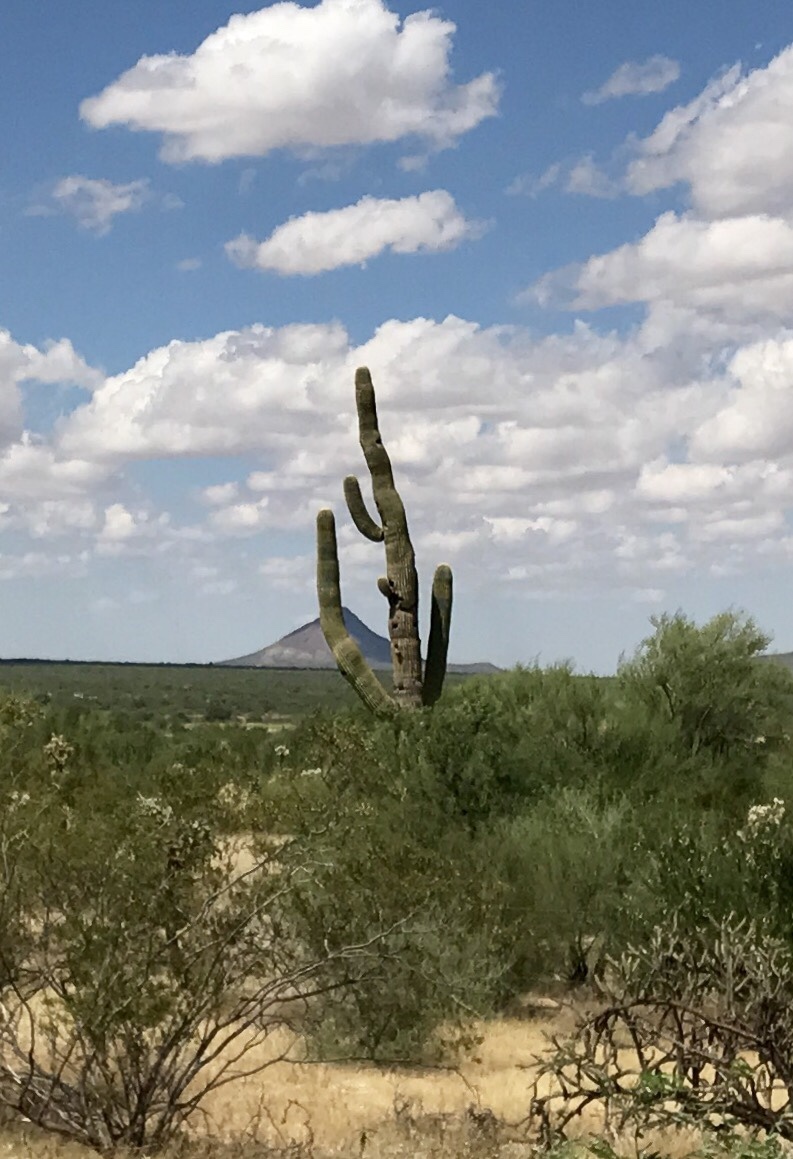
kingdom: Plantae
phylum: Tracheophyta
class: Magnoliopsida
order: Caryophyllales
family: Cactaceae
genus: Carnegiea
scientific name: Carnegiea gigantea
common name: Saguaro
